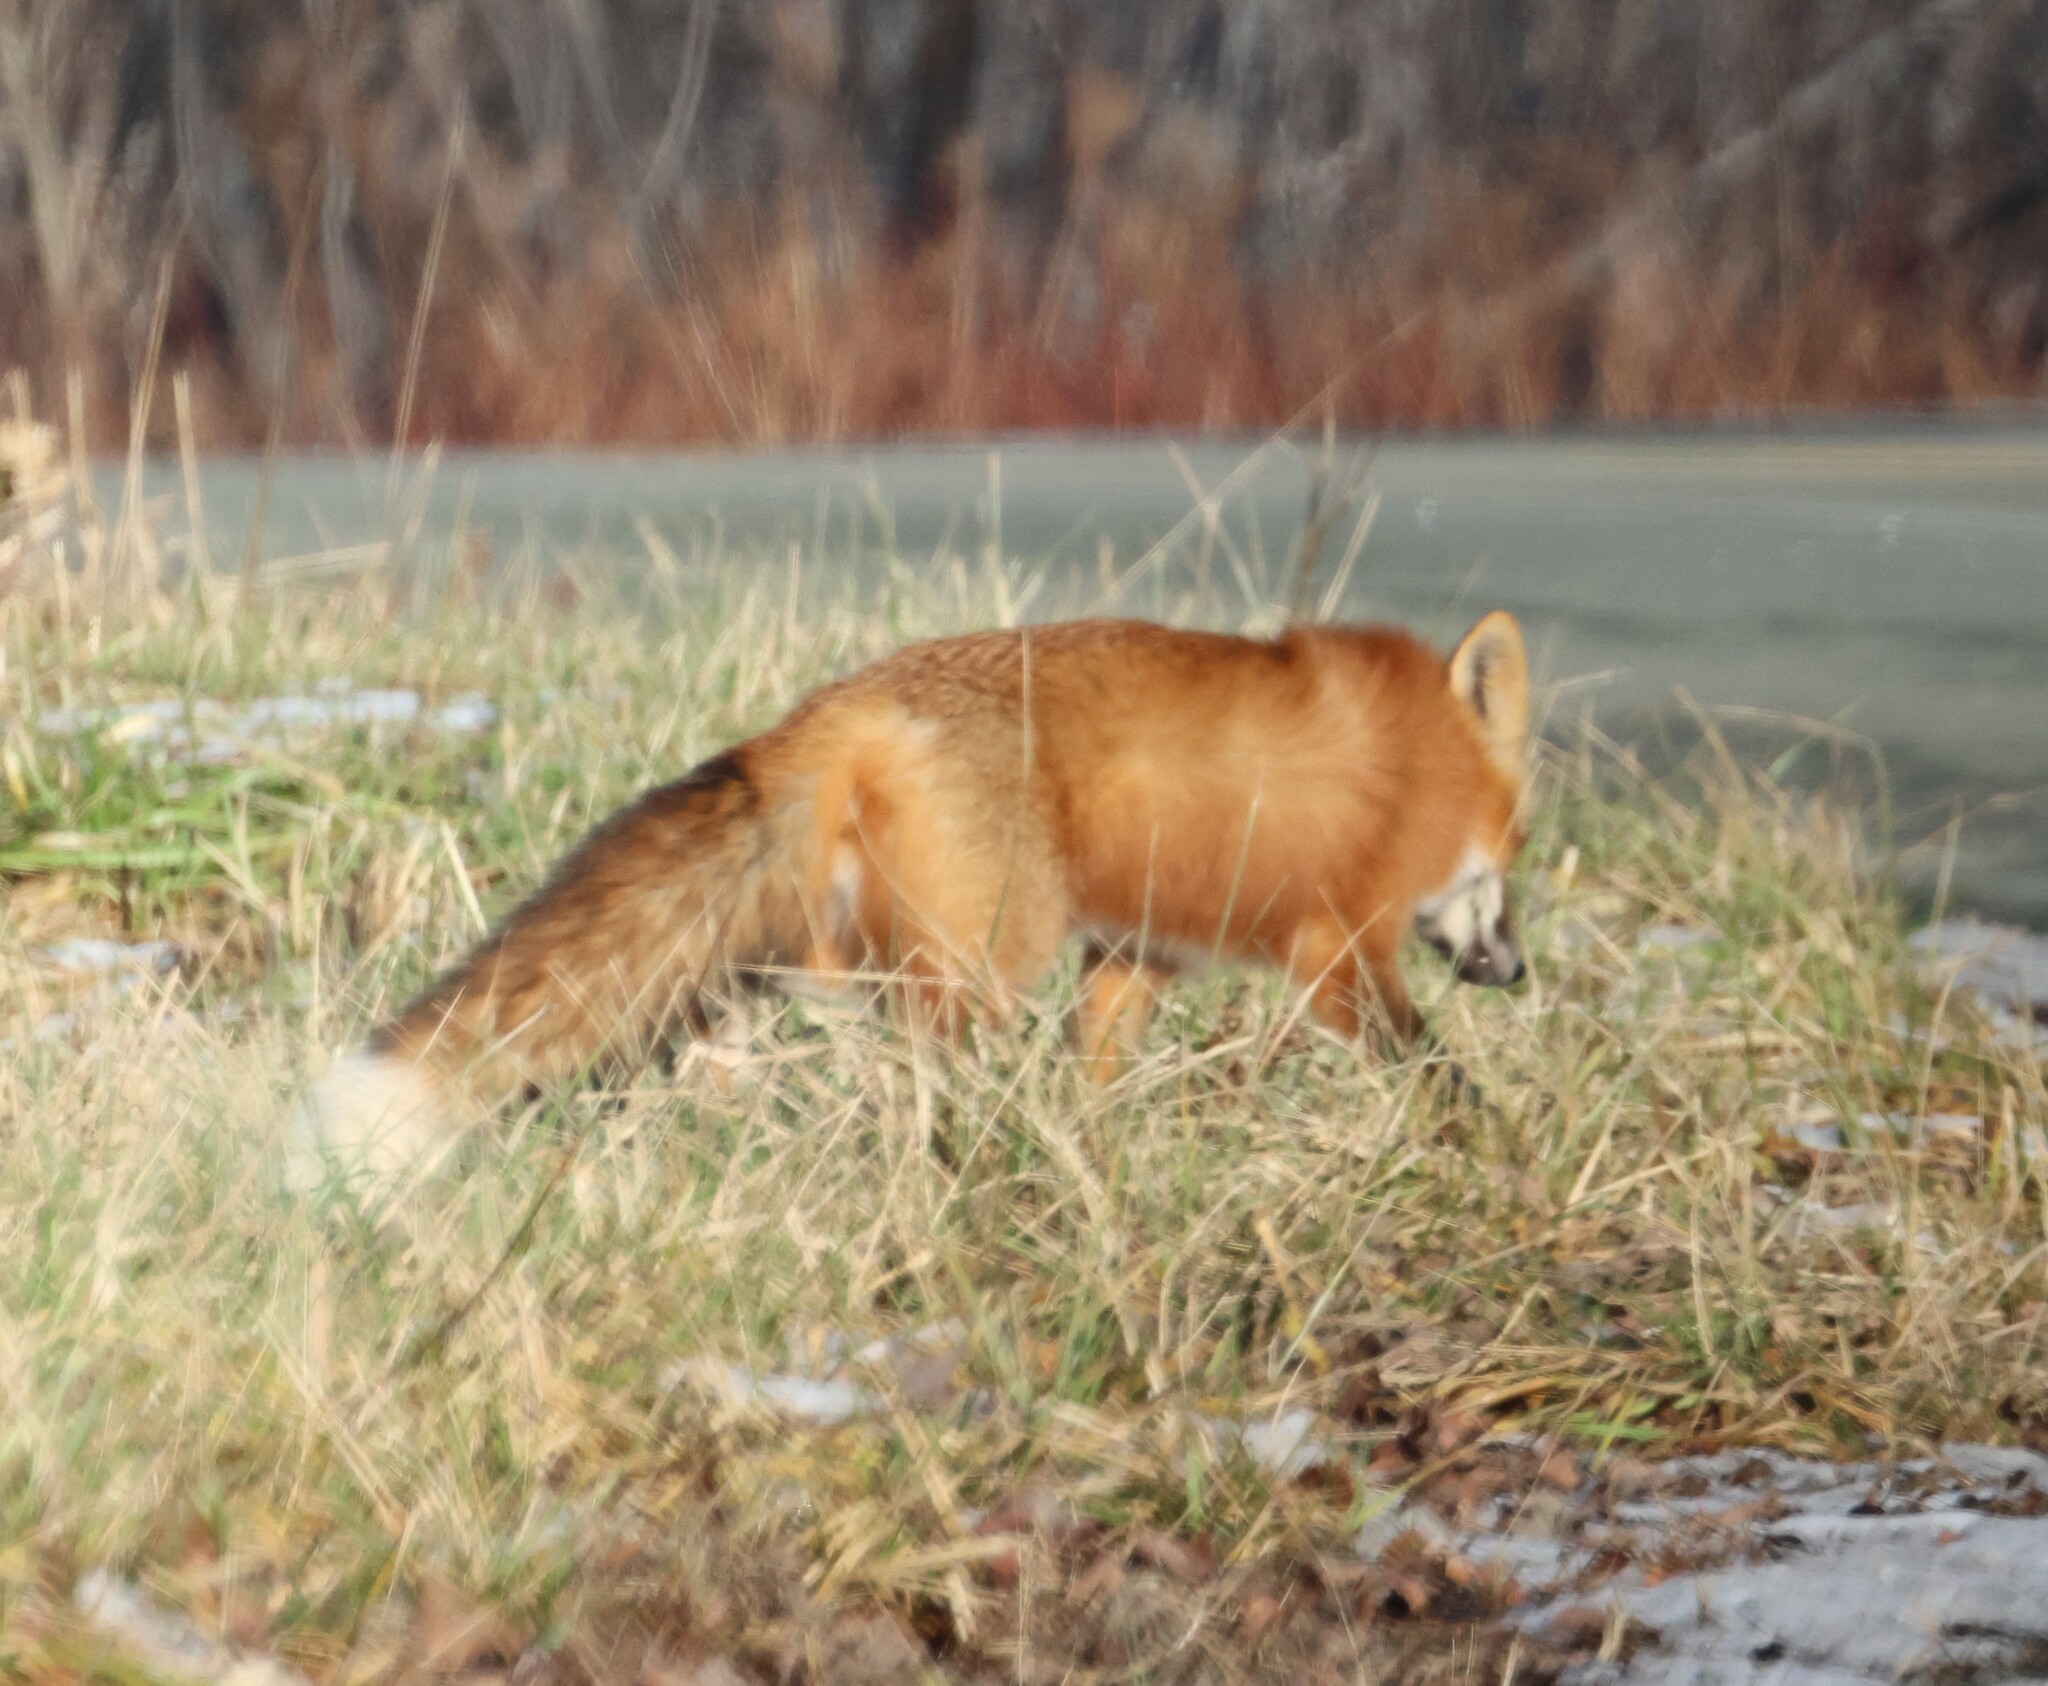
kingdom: Animalia
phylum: Chordata
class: Mammalia
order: Carnivora
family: Canidae
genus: Vulpes
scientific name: Vulpes vulpes
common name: Red fox
